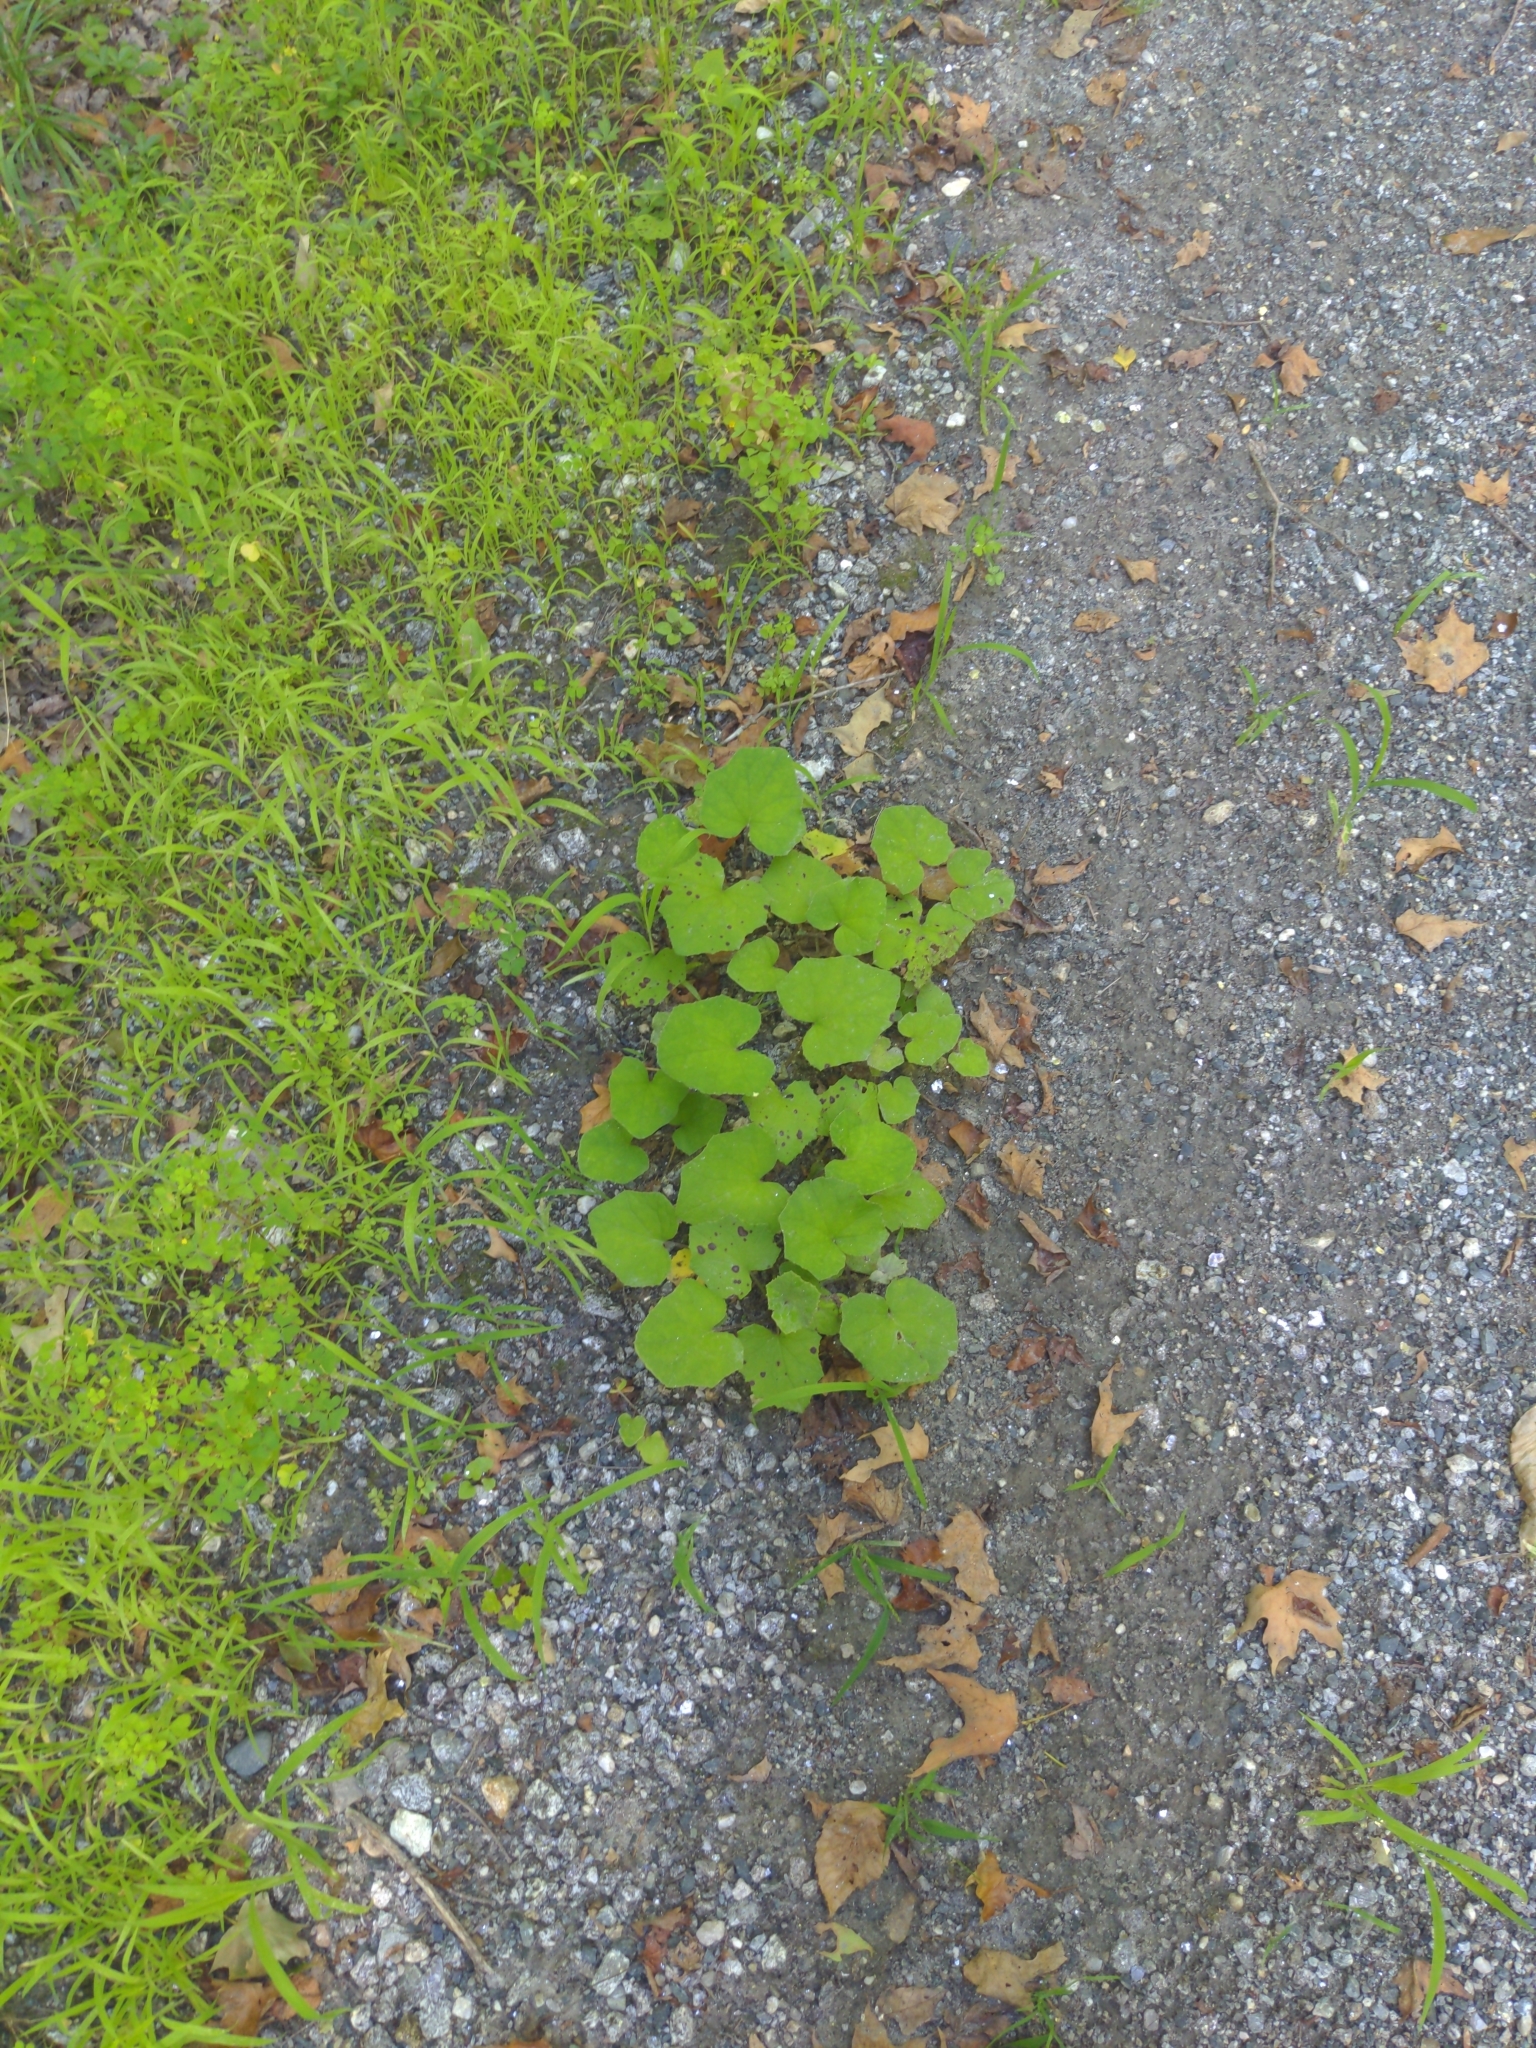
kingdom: Plantae
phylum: Tracheophyta
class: Magnoliopsida
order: Asterales
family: Asteraceae
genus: Tussilago
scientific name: Tussilago farfara
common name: Coltsfoot
